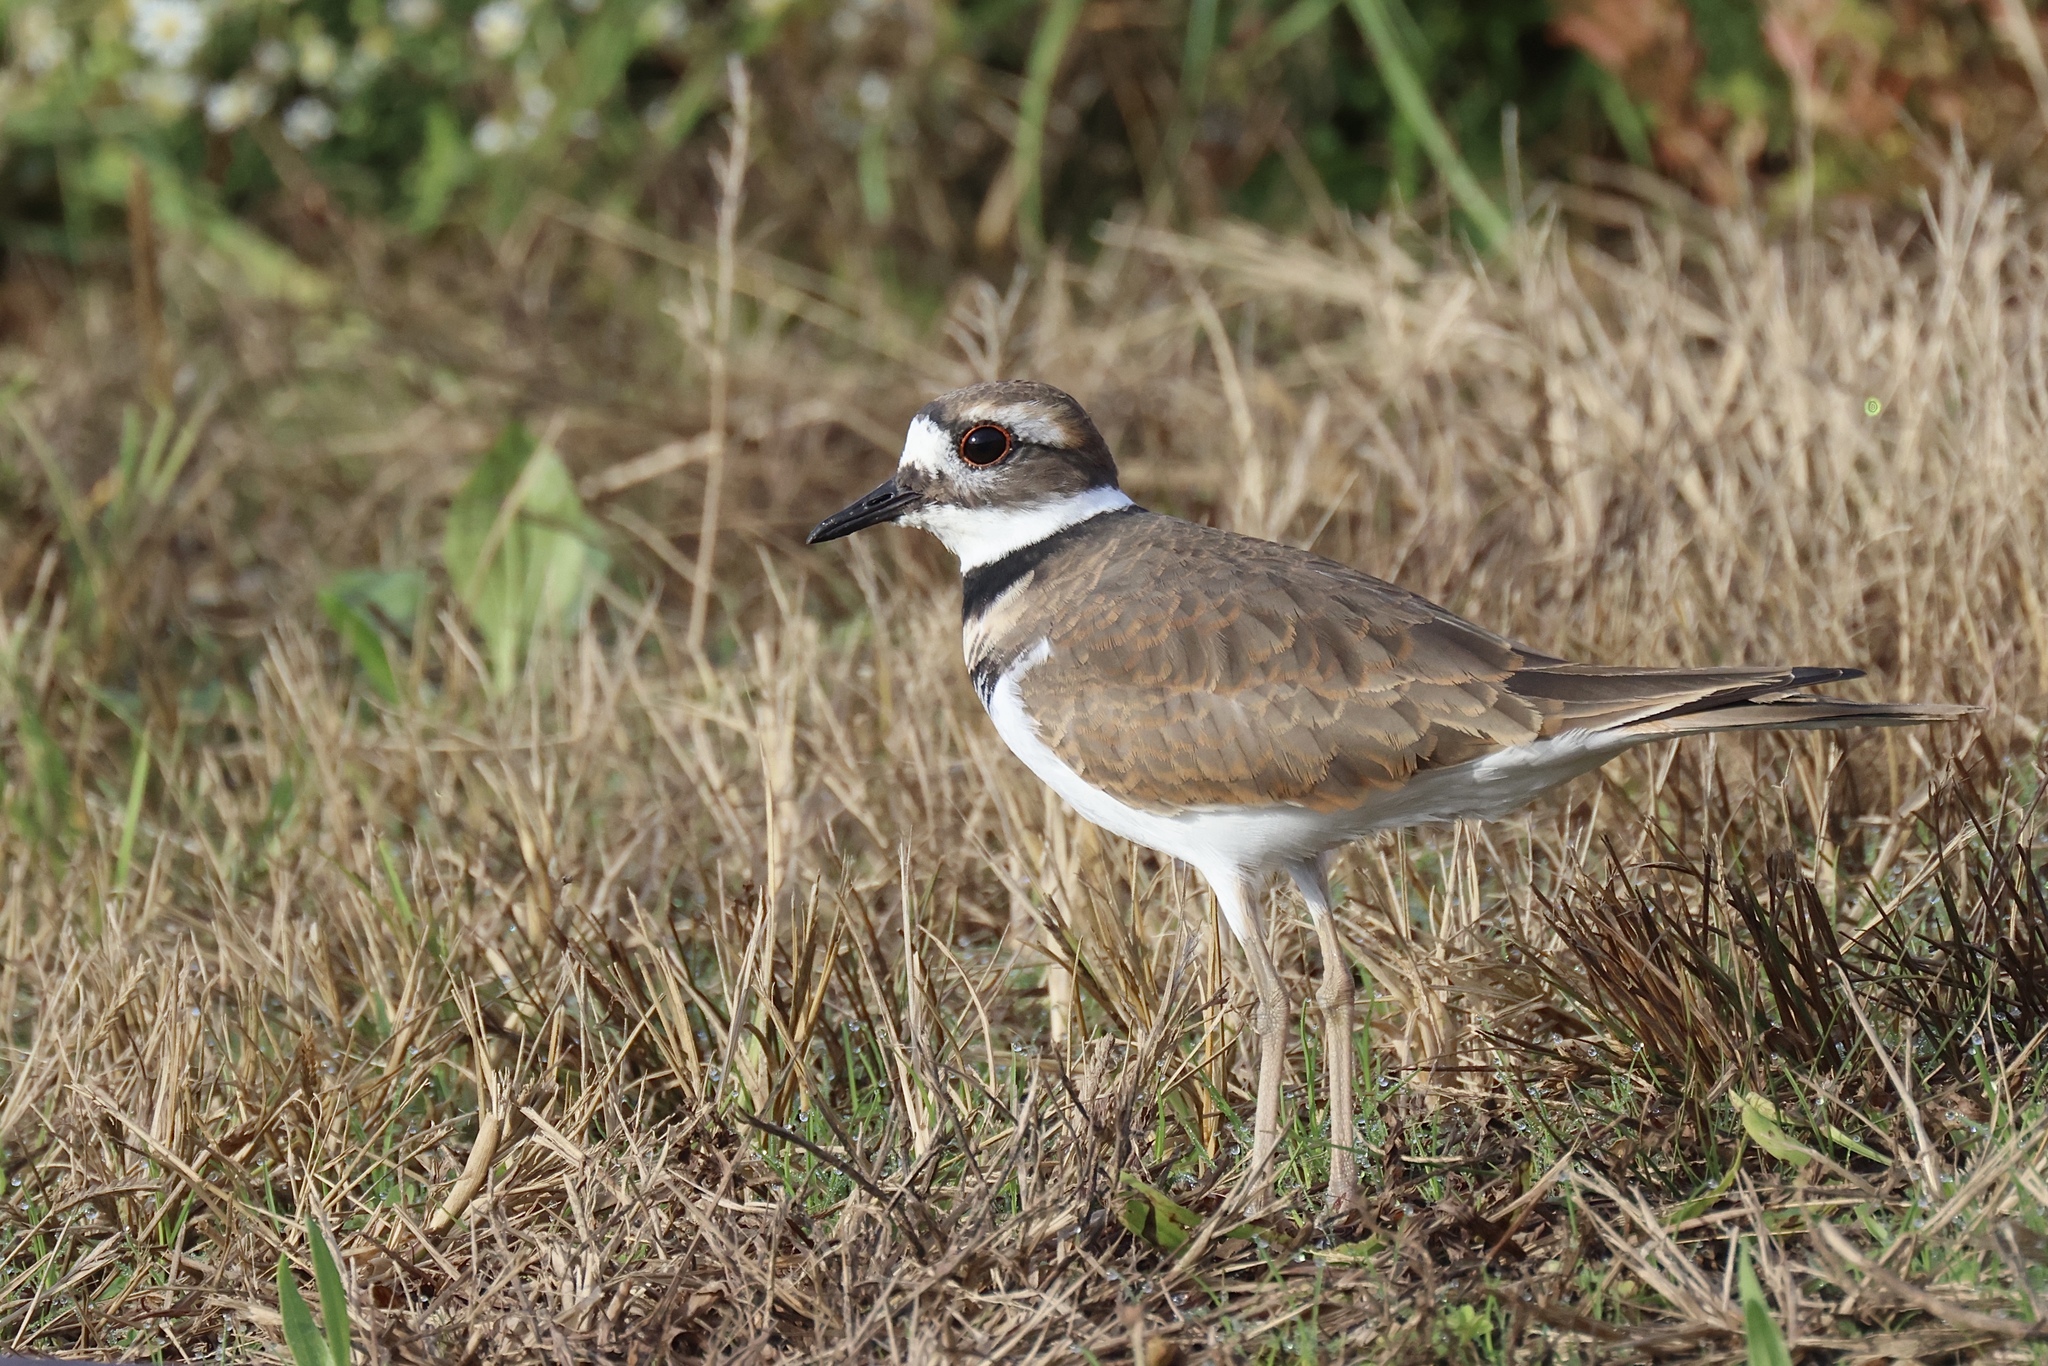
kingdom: Animalia
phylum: Chordata
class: Aves
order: Charadriiformes
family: Charadriidae
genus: Charadrius
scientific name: Charadrius vociferus
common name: Killdeer
